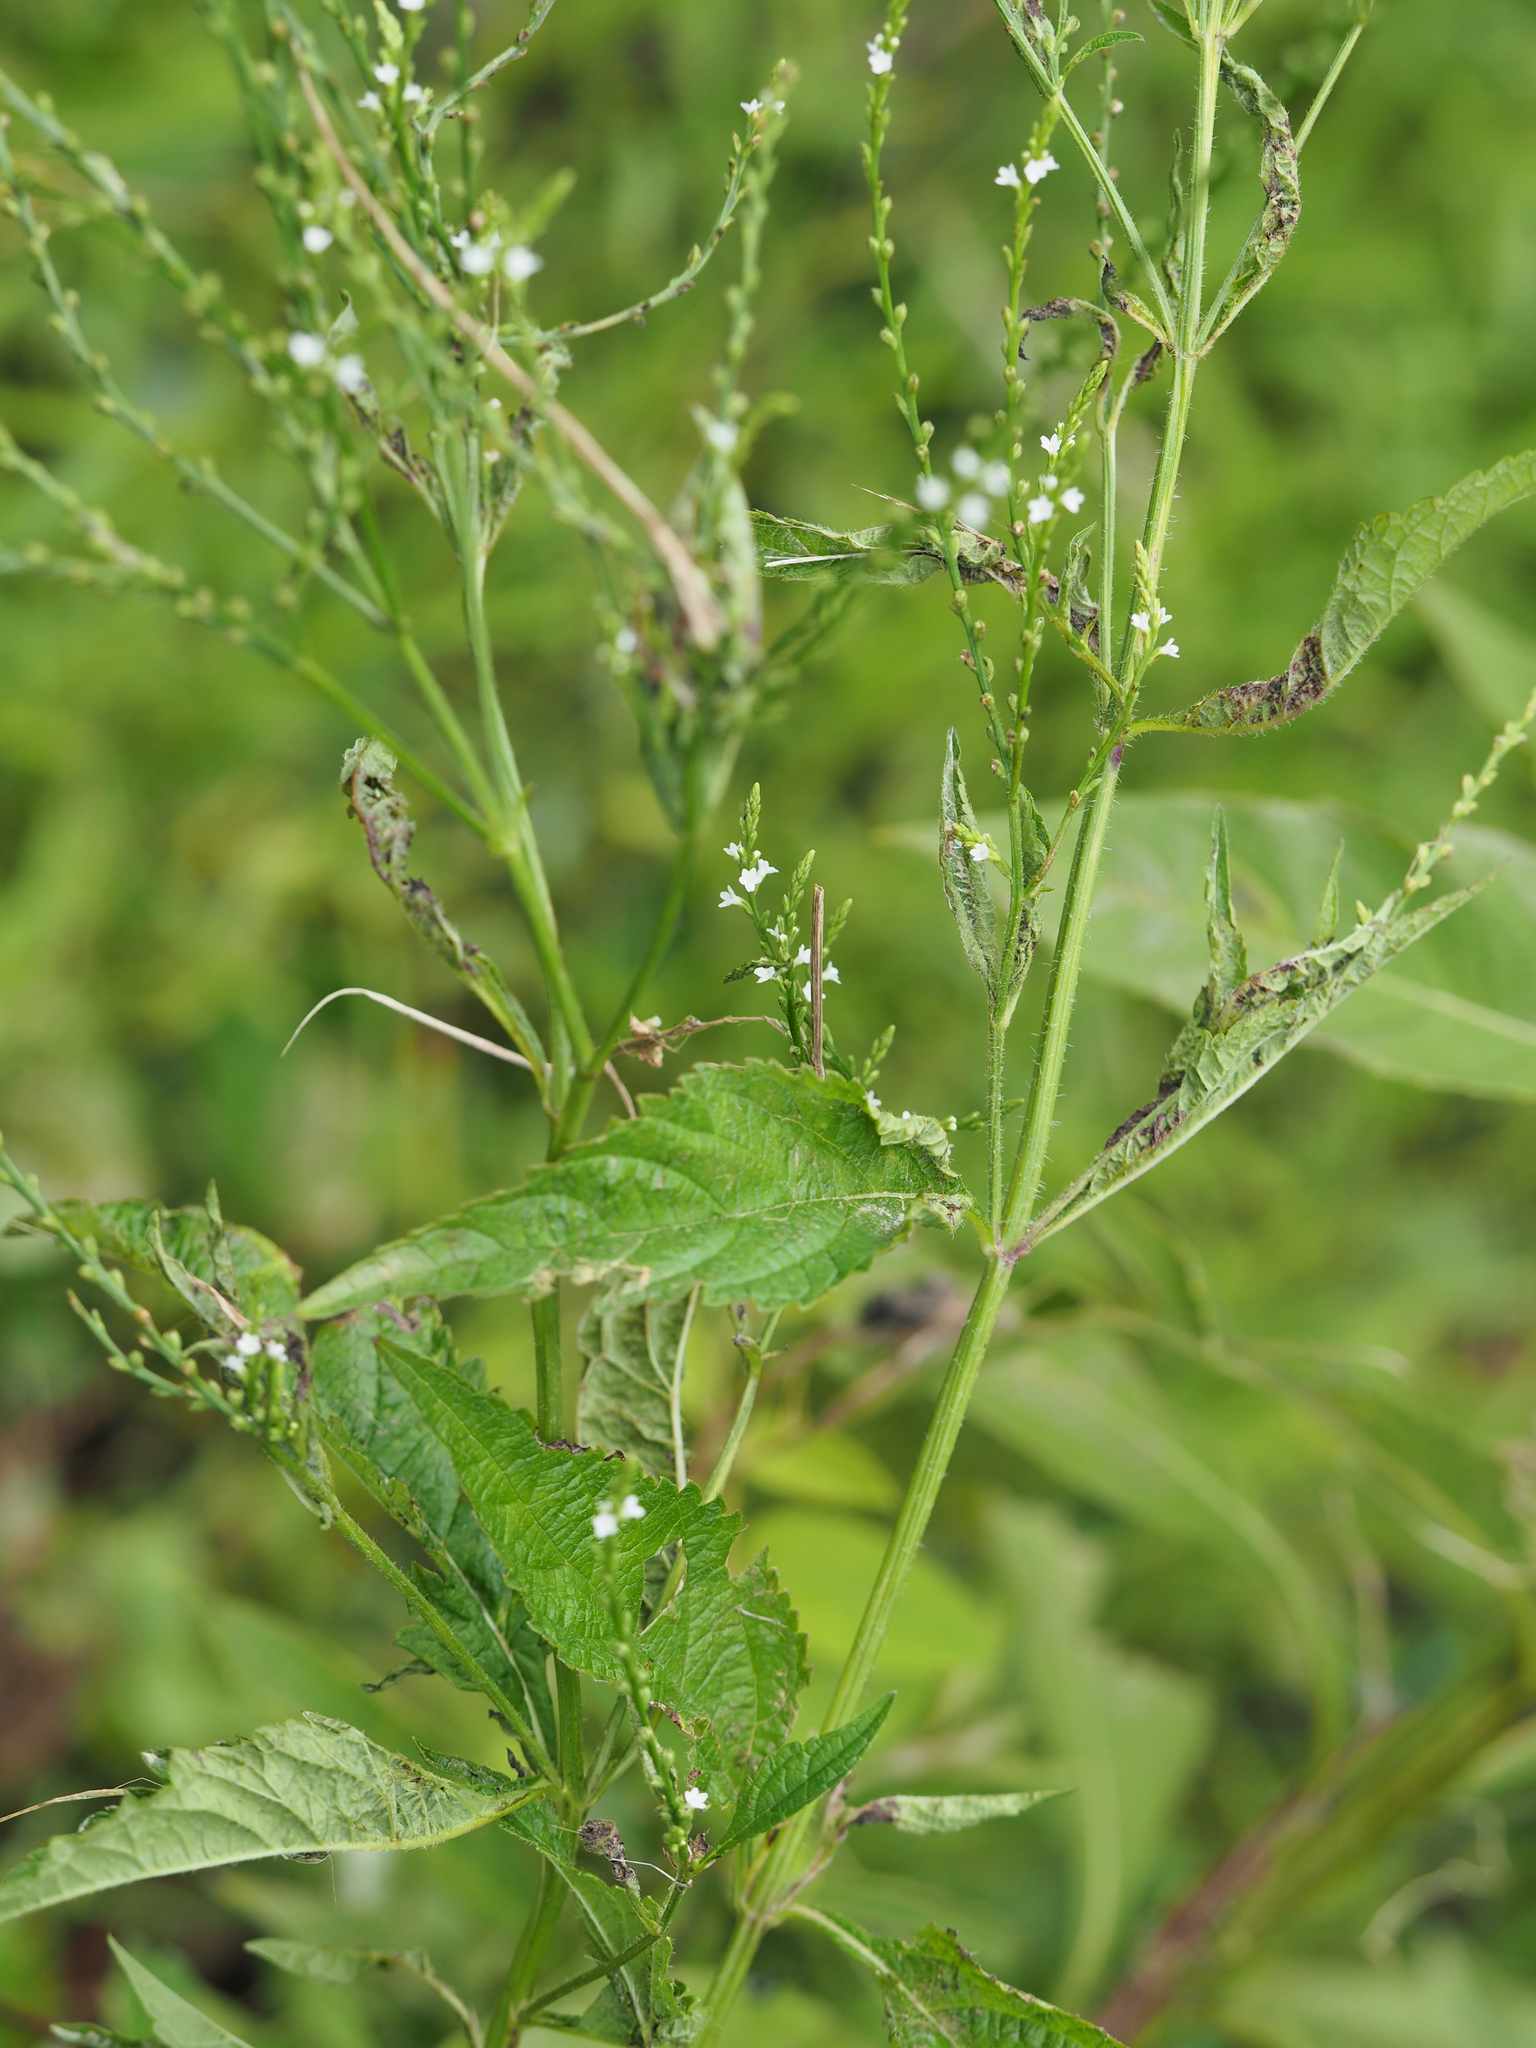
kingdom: Plantae
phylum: Tracheophyta
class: Magnoliopsida
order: Lamiales
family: Verbenaceae
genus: Verbena
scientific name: Verbena urticifolia
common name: Nettle-leaved vervain
